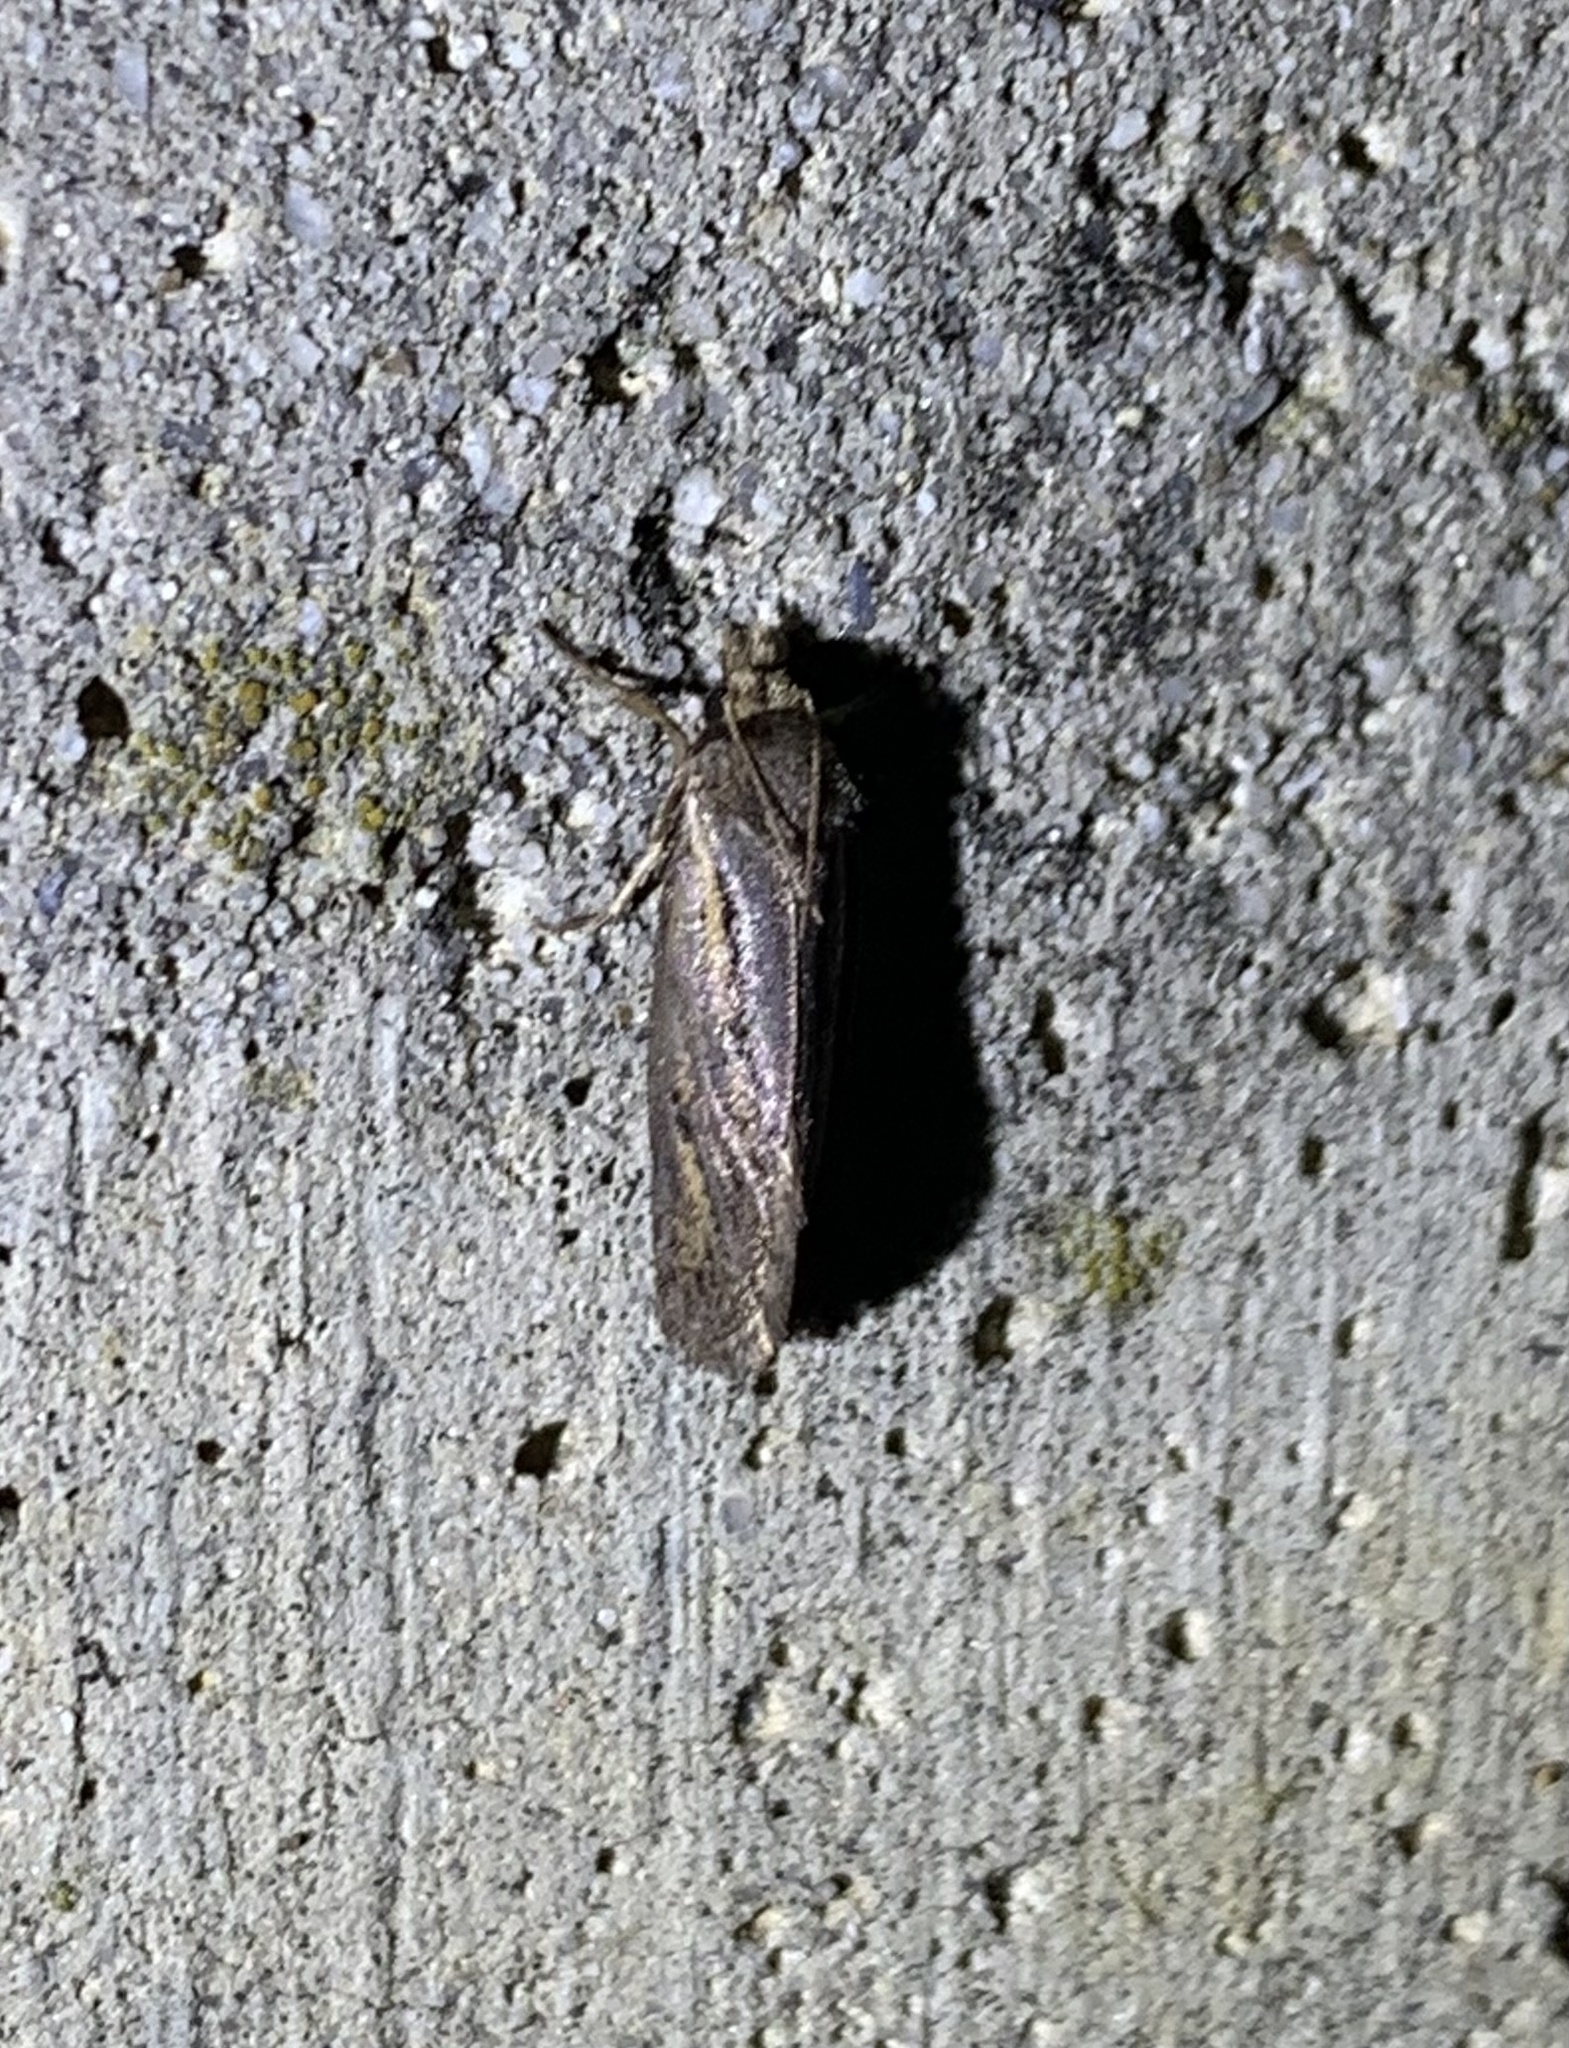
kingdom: Animalia
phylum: Arthropoda
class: Insecta
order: Lepidoptera
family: Tineidae
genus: Acrolophus
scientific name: Acrolophus popeanella
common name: Clemens' grass tubeworm moth
